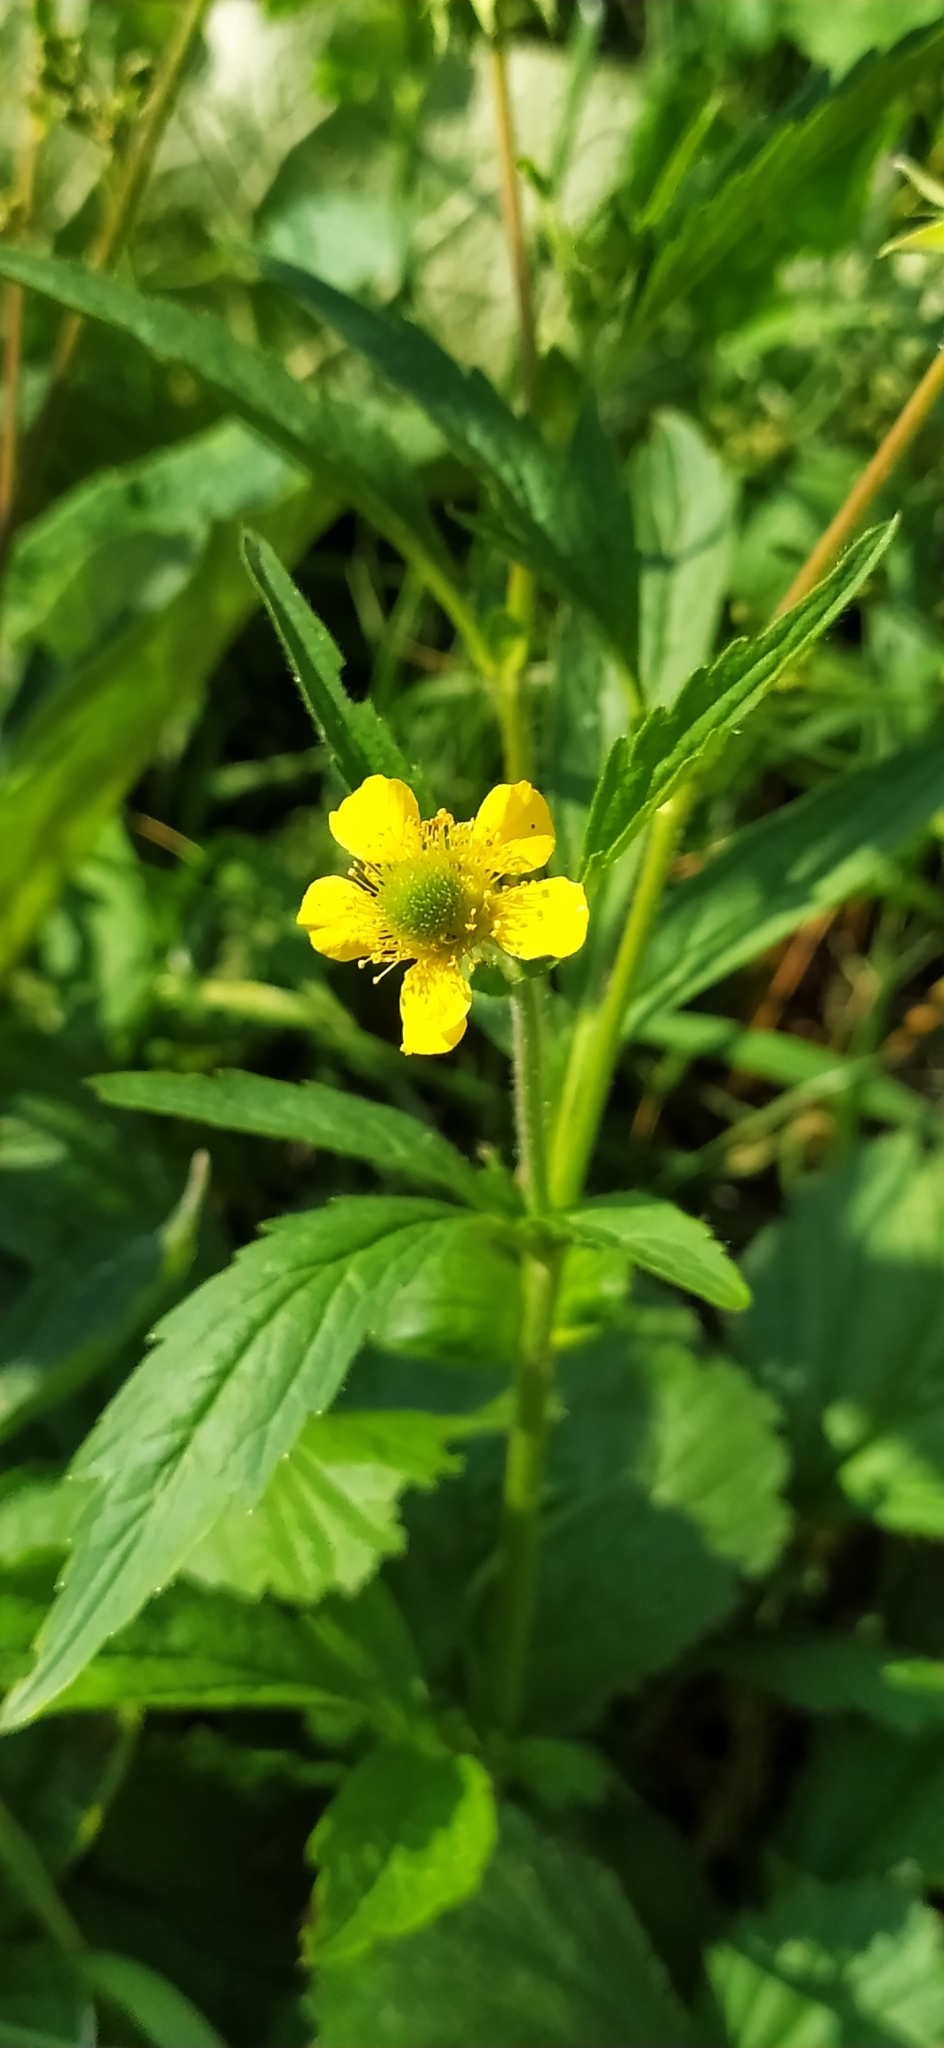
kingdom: Plantae
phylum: Tracheophyta
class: Magnoliopsida
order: Rosales
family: Rosaceae
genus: Geum
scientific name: Geum aleppicum
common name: Yellow avens
